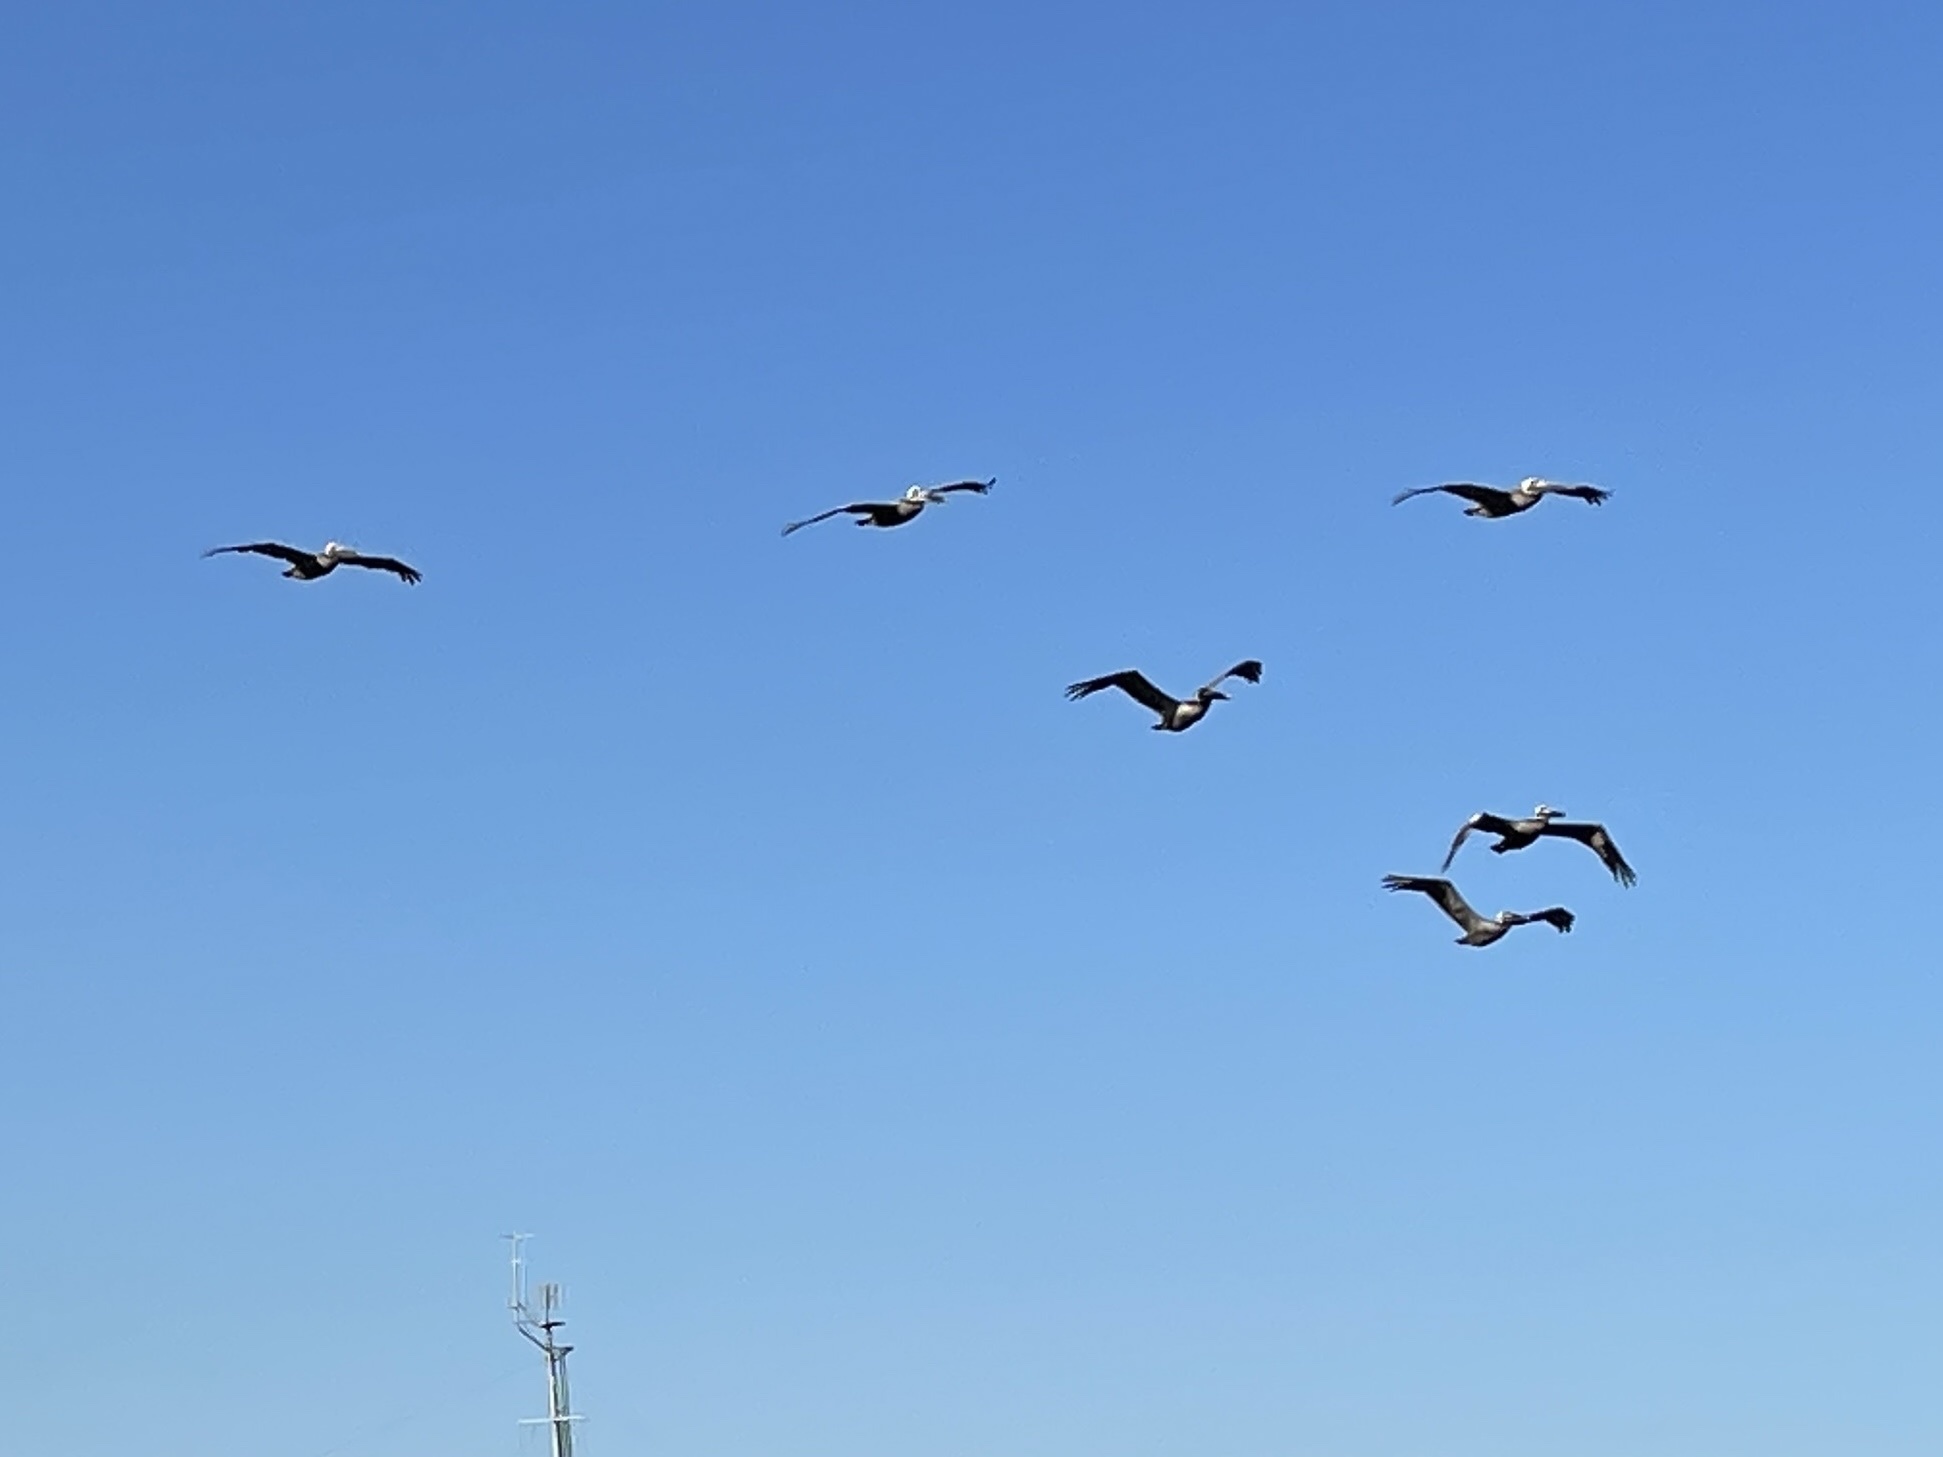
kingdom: Animalia
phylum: Chordata
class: Aves
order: Pelecaniformes
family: Pelecanidae
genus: Pelecanus
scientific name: Pelecanus occidentalis
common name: Brown pelican
